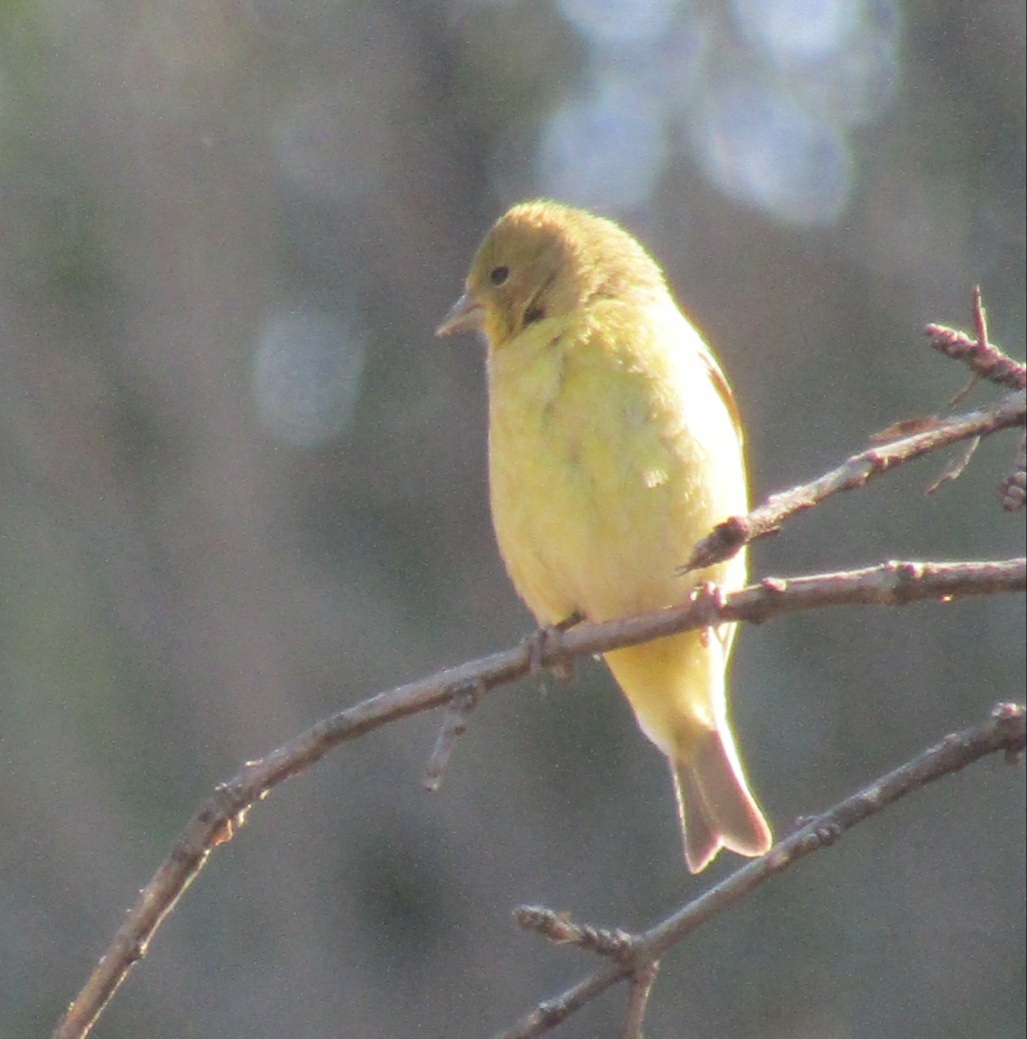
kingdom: Animalia
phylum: Chordata
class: Aves
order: Passeriformes
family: Fringillidae
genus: Spinus
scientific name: Spinus psaltria
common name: Lesser goldfinch
